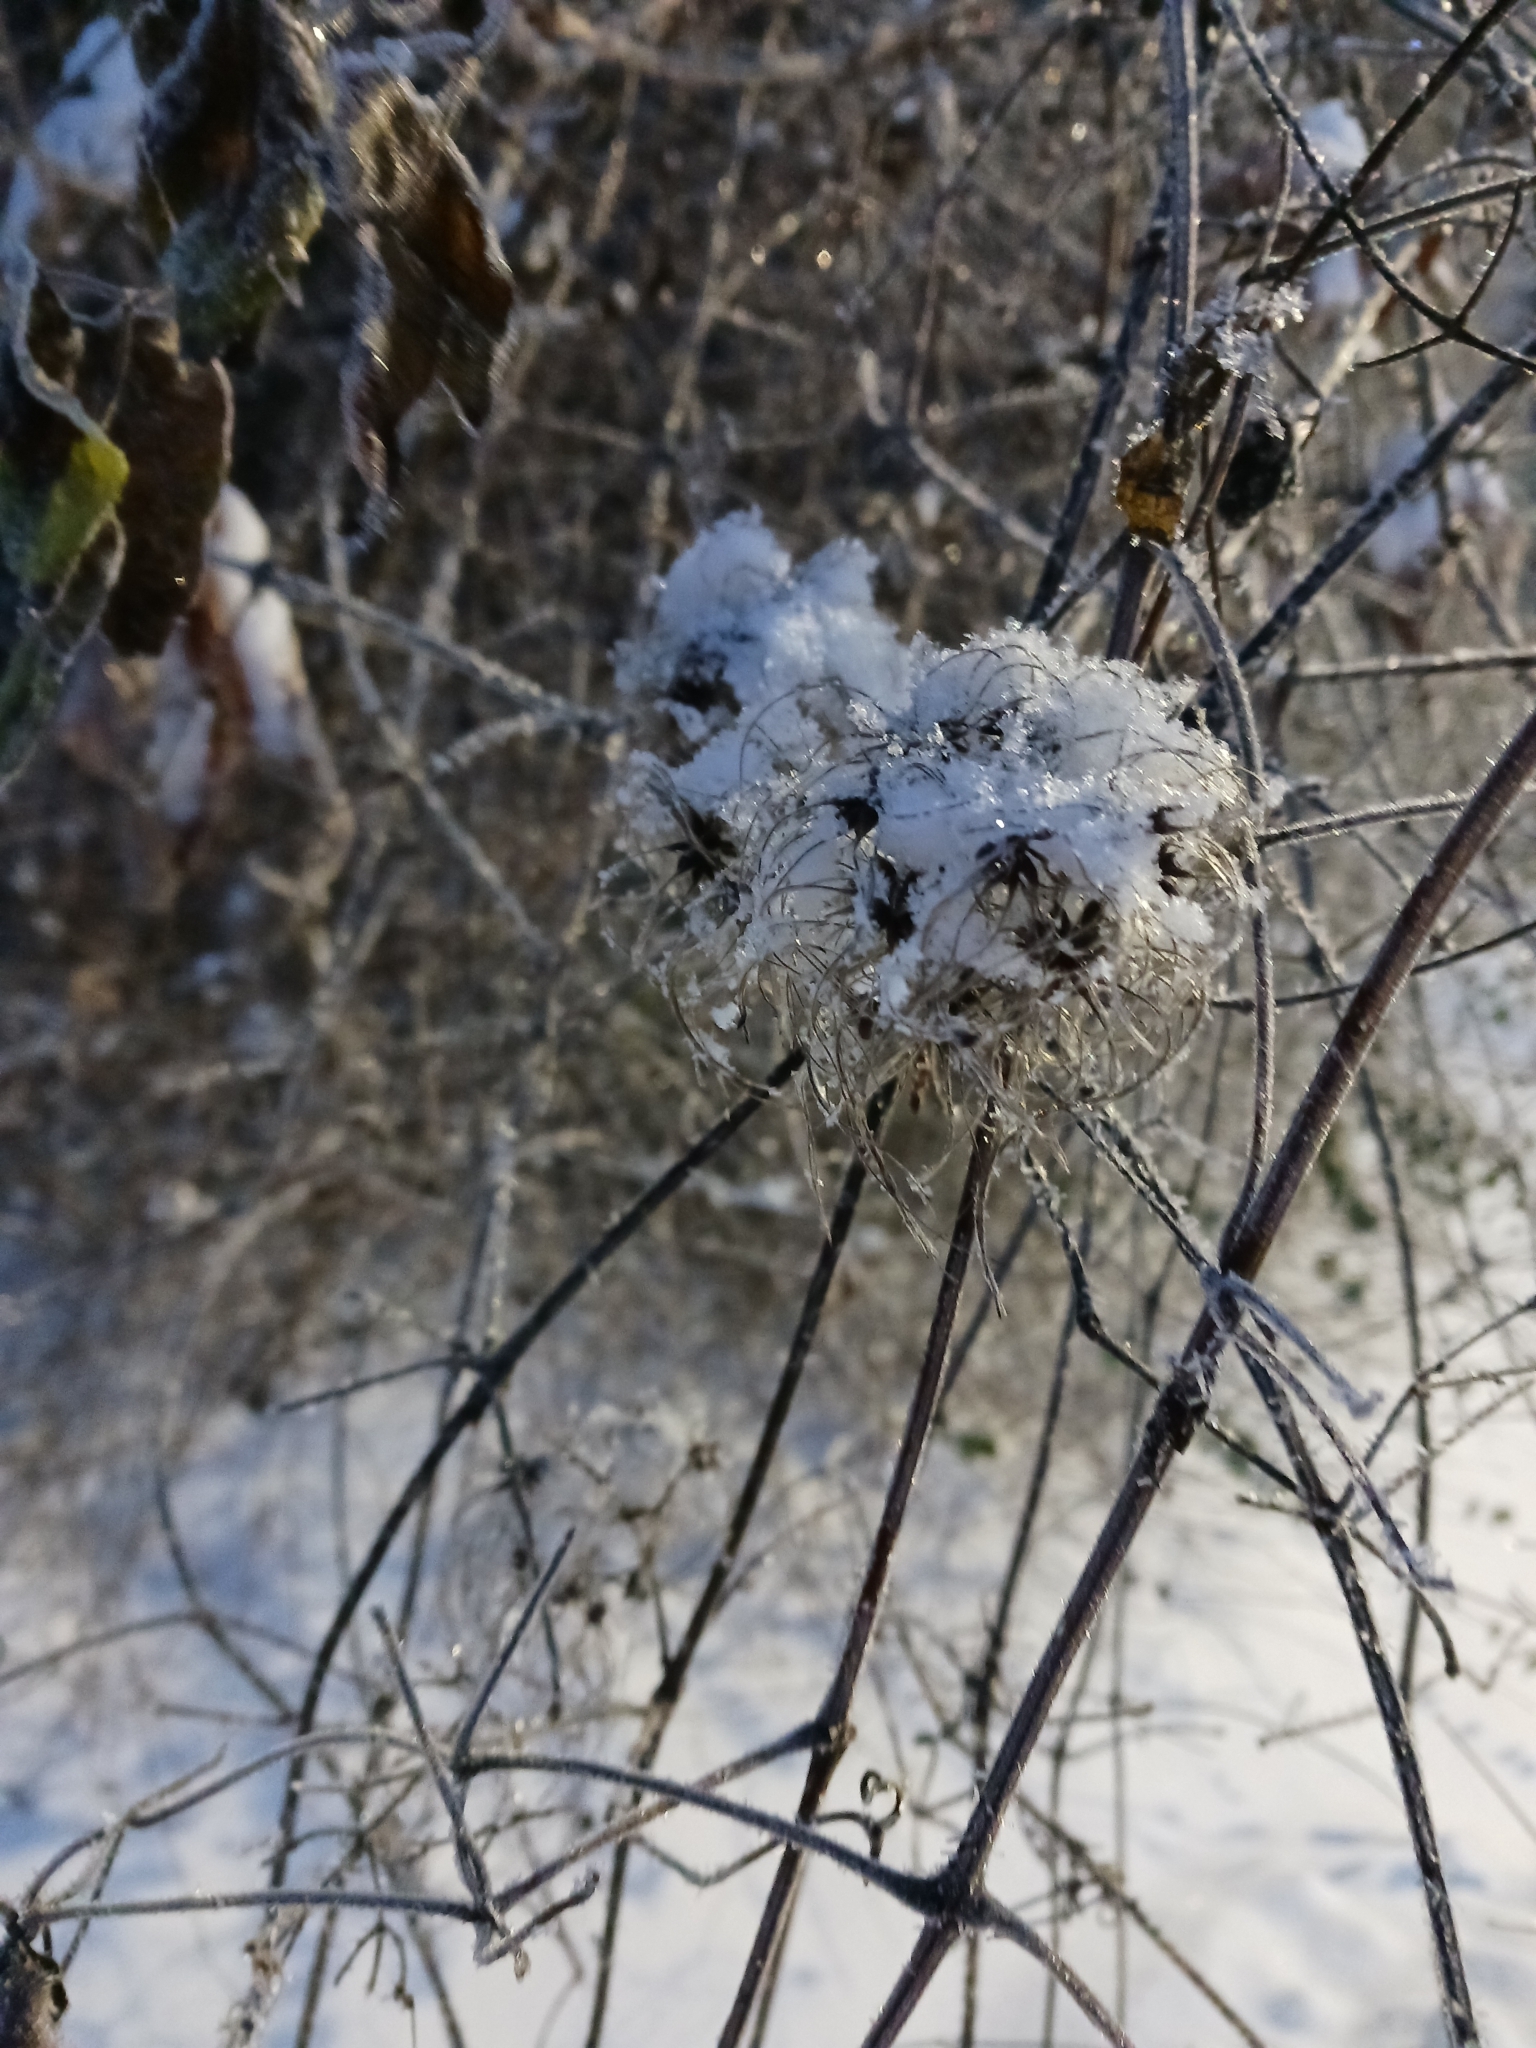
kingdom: Plantae
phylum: Tracheophyta
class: Magnoliopsida
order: Ranunculales
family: Ranunculaceae
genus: Clematis
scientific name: Clematis vitalba
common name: Evergreen clematis
